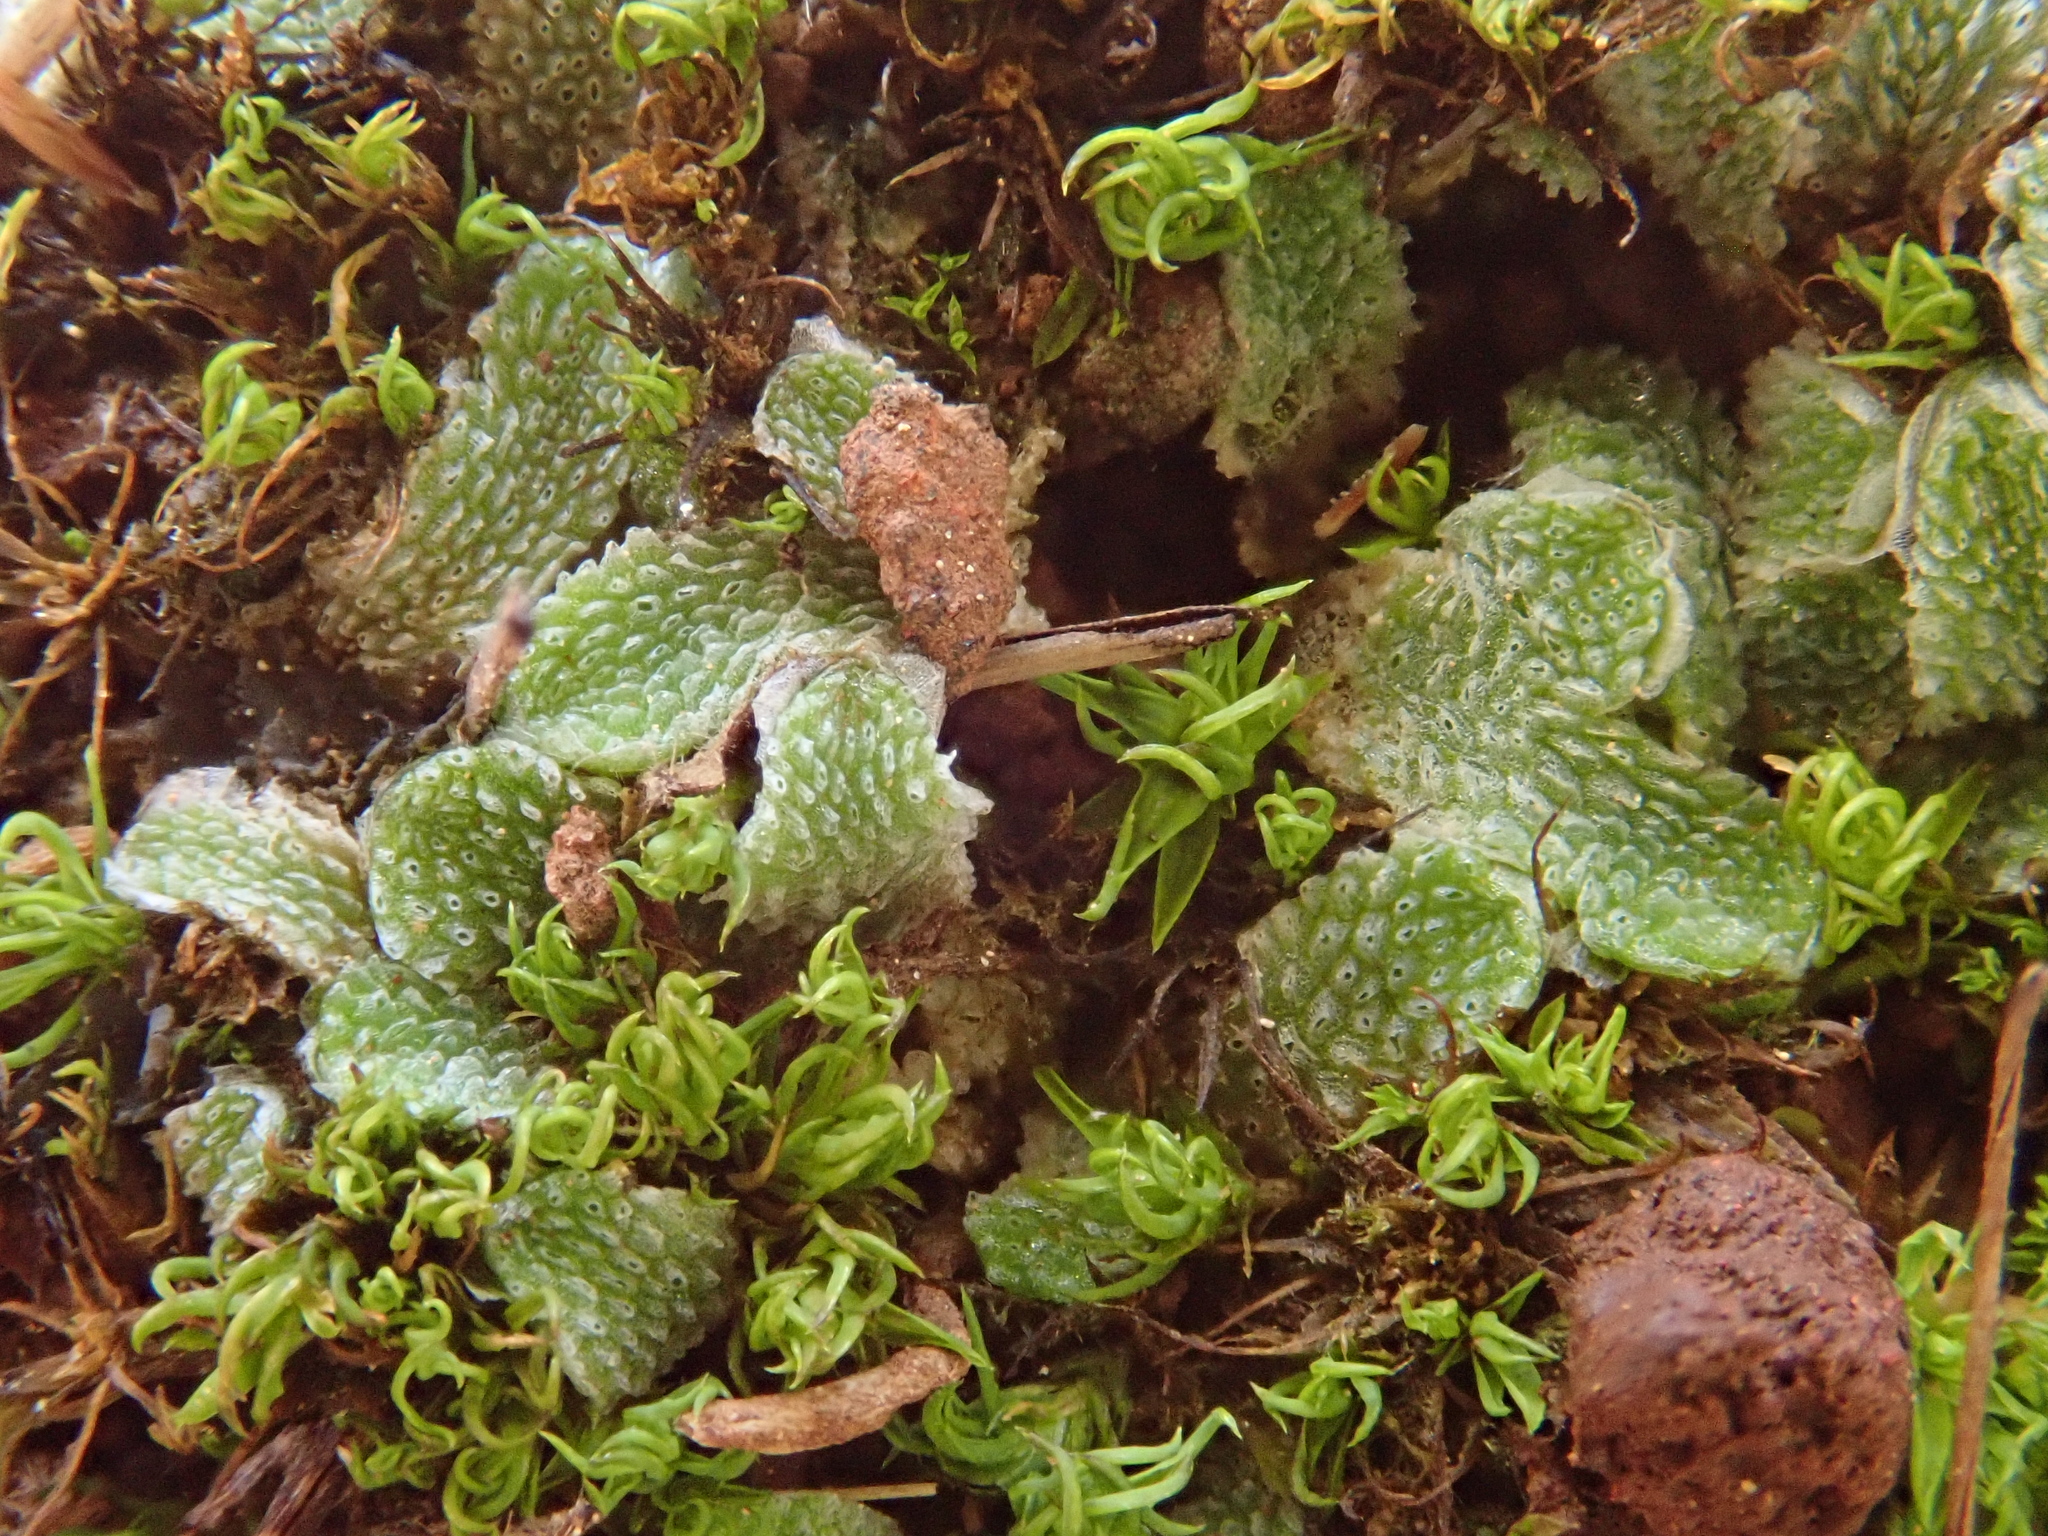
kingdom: Plantae
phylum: Marchantiophyta
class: Marchantiopsida
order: Marchantiales
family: Corsiniaceae
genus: Exormotheca
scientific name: Exormotheca pustulosa
